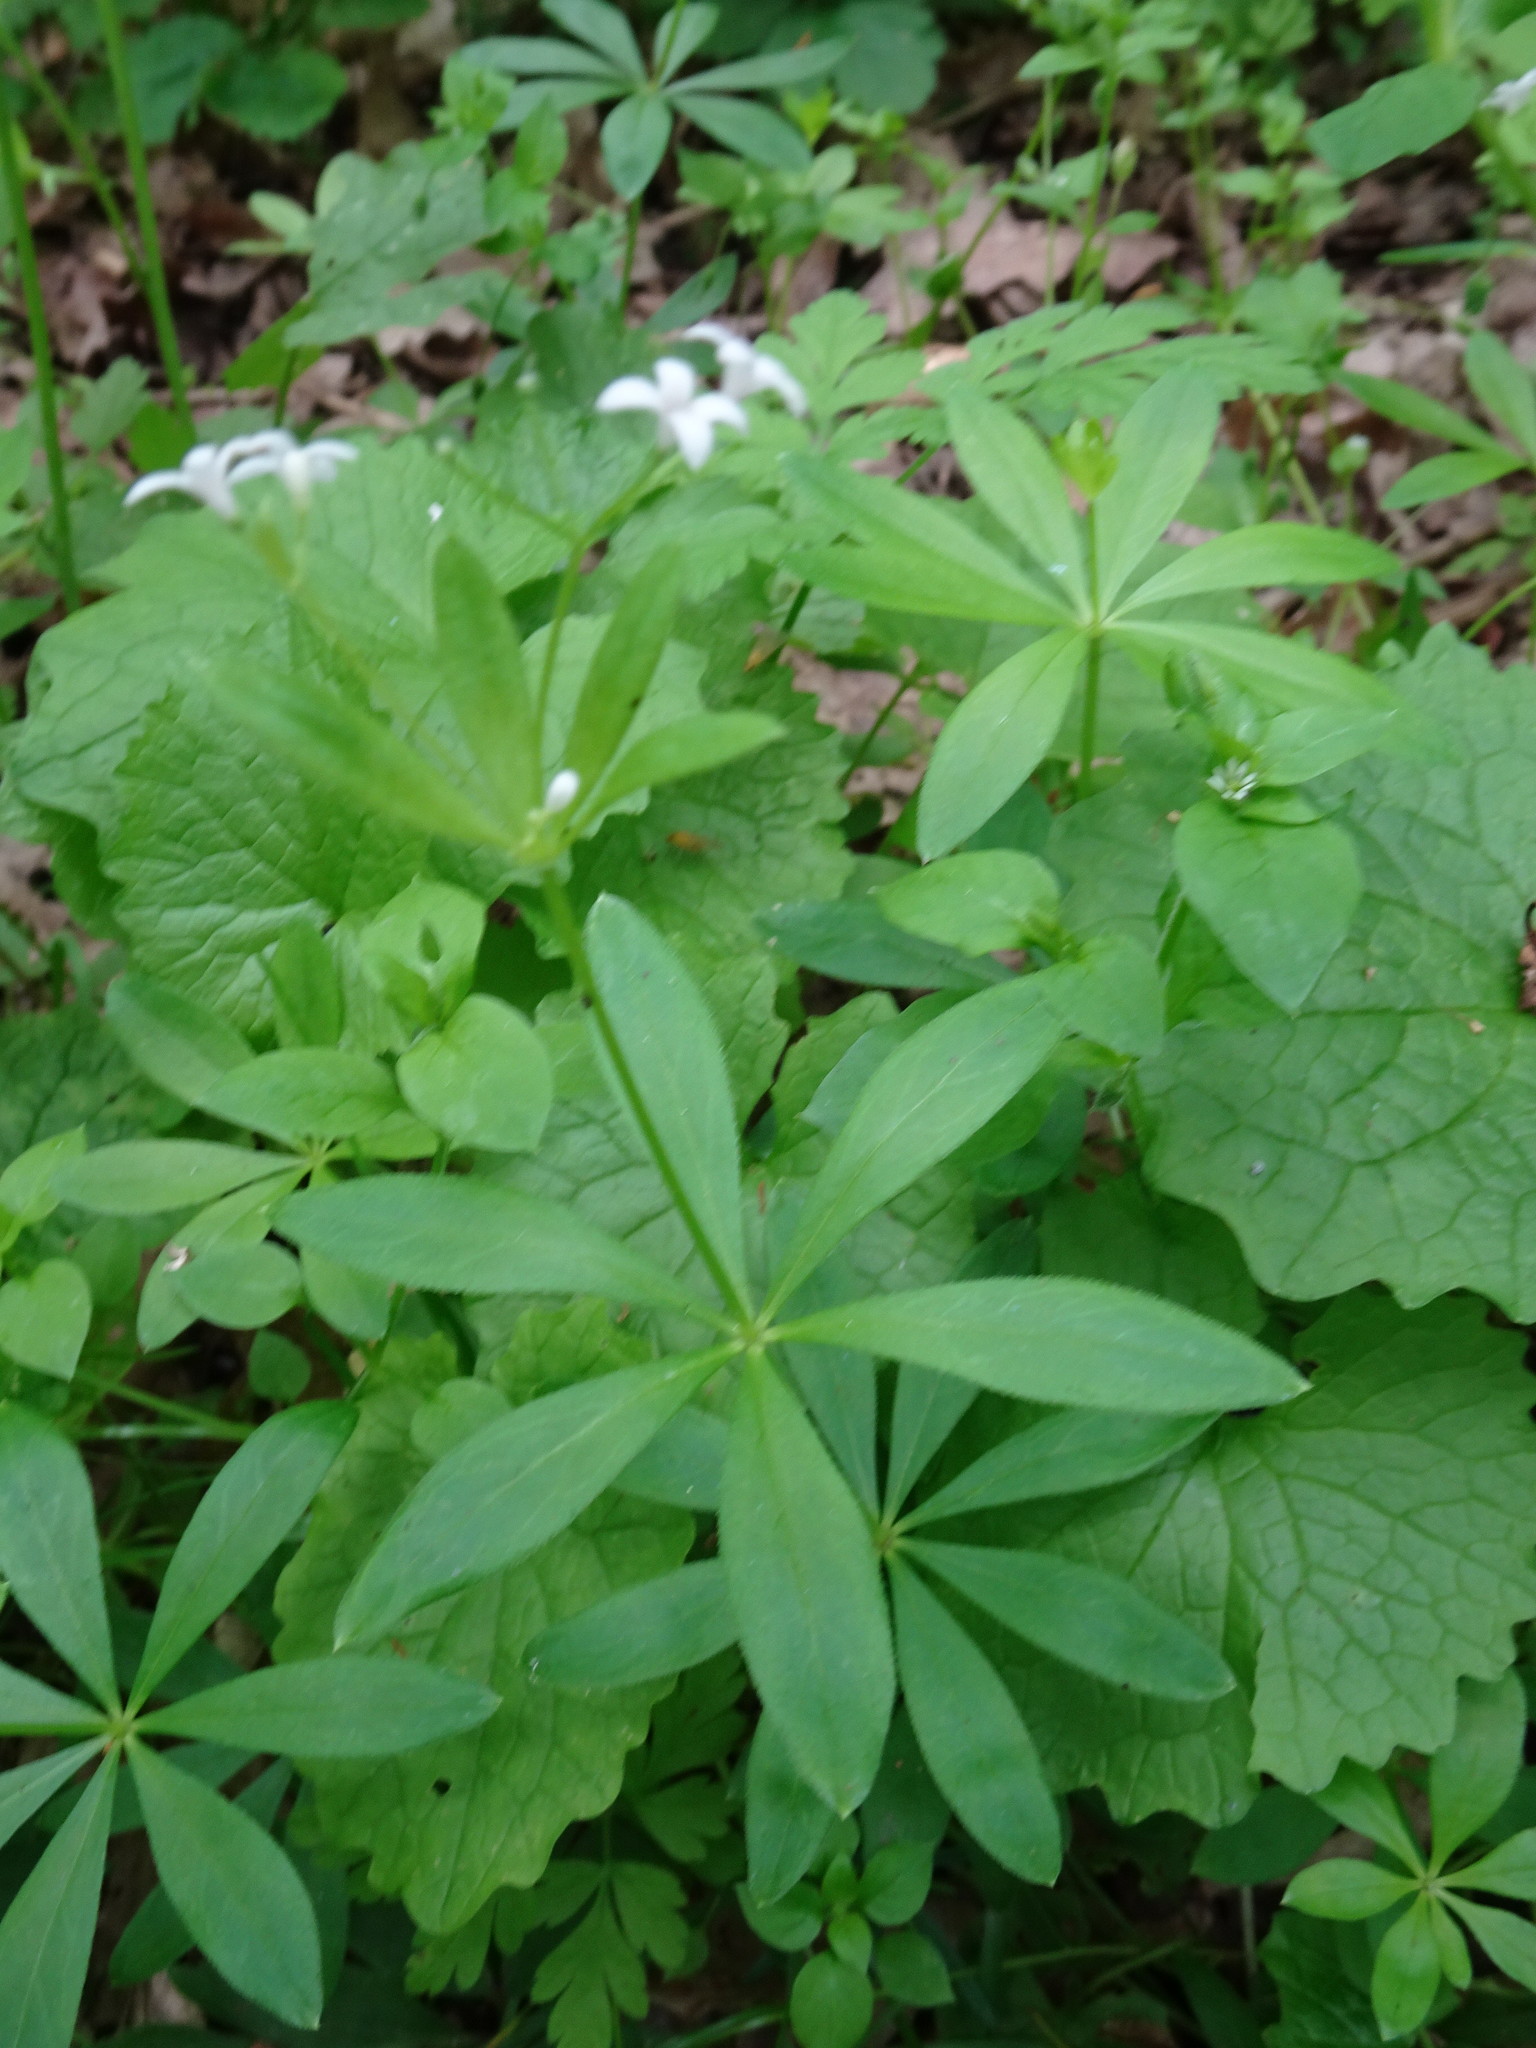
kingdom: Plantae
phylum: Tracheophyta
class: Magnoliopsida
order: Gentianales
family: Rubiaceae
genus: Galium
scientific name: Galium odoratum
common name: Sweet woodruff
